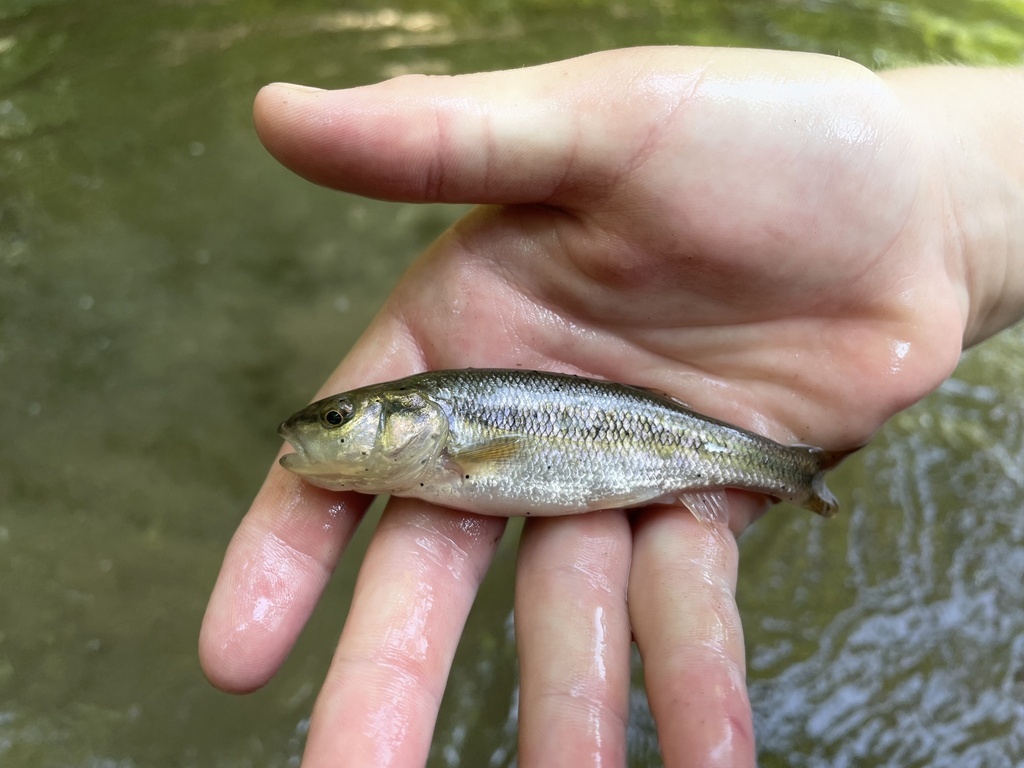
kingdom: Animalia
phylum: Chordata
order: Cypriniformes
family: Cyprinidae
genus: Semotilus
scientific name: Semotilus atromaculatus
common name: Creek chub
